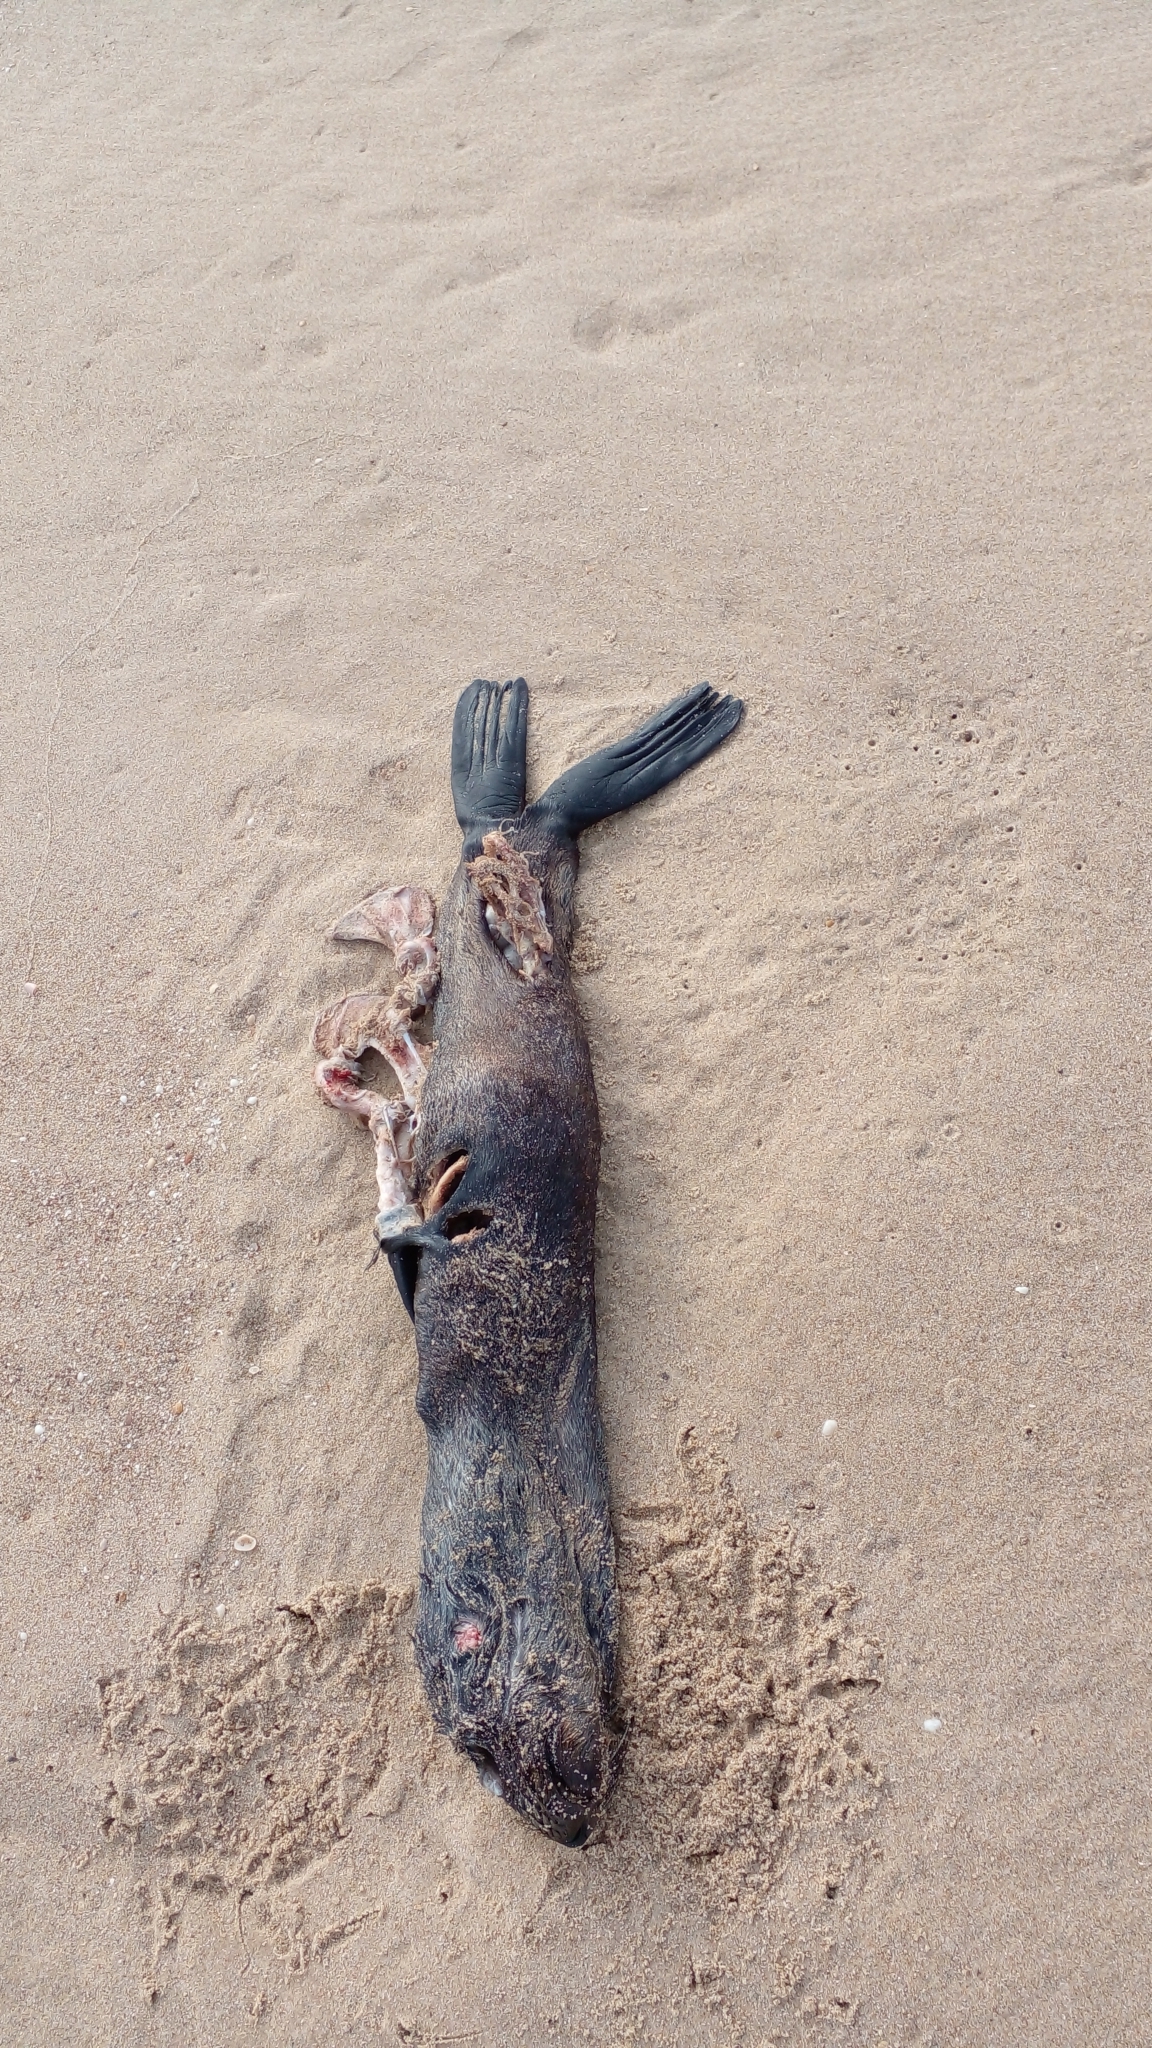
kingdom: Animalia
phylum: Chordata
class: Mammalia
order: Carnivora
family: Otariidae
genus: Arctocephalus
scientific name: Arctocephalus australis
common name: South american fur seal
